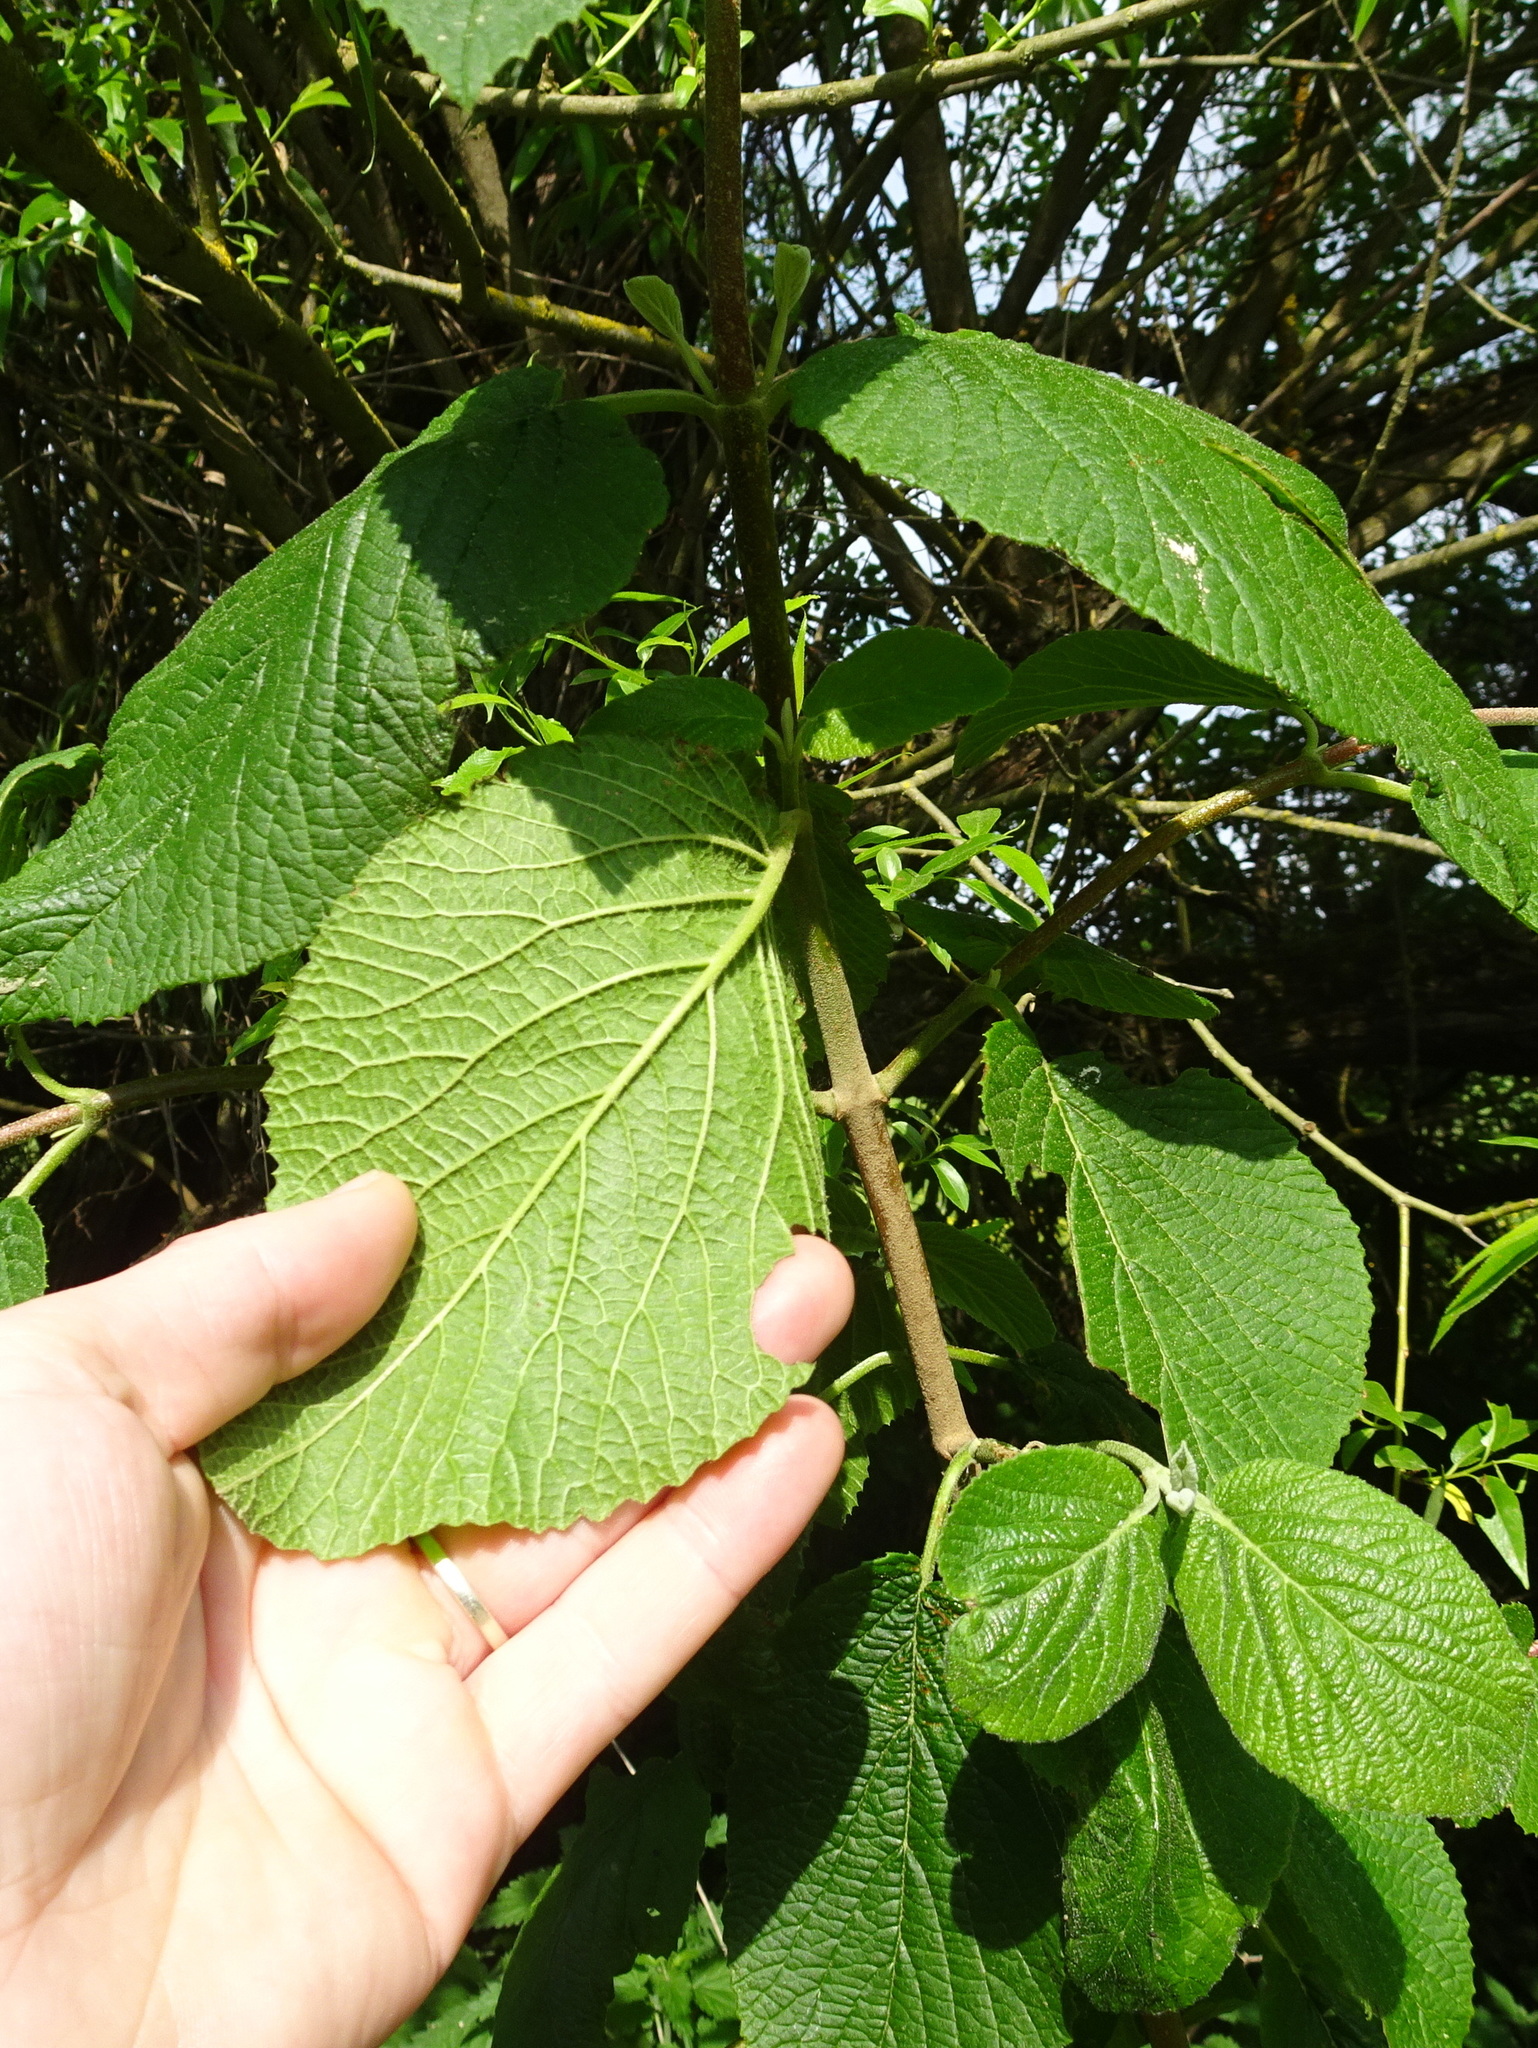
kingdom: Plantae
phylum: Tracheophyta
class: Magnoliopsida
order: Dipsacales
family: Viburnaceae
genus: Viburnum
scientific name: Viburnum lantana
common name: Wayfaring tree
